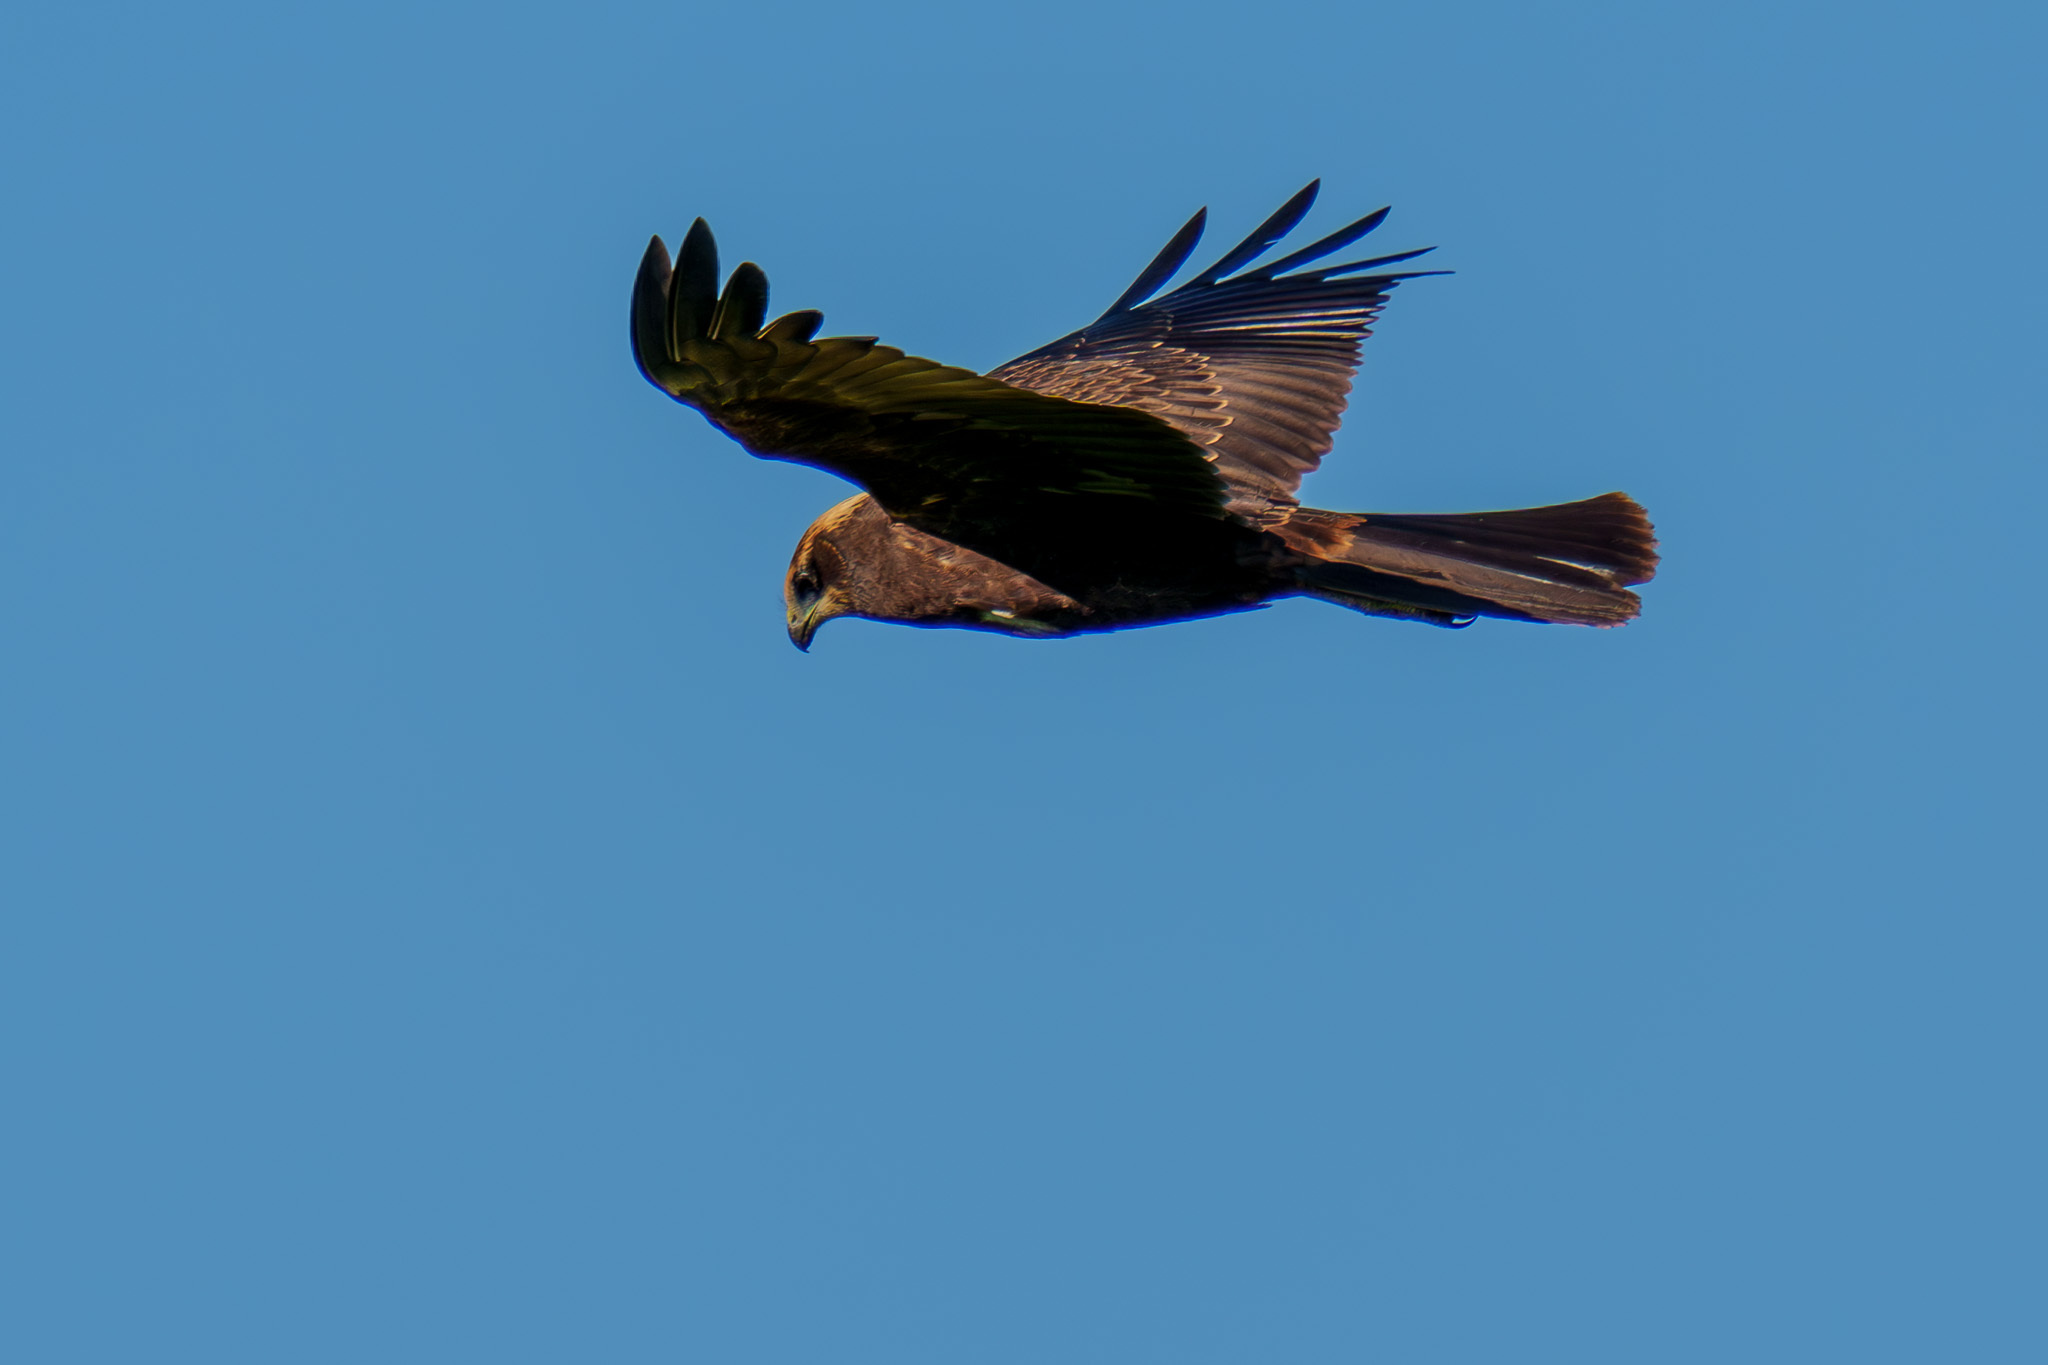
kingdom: Animalia
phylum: Chordata
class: Aves
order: Accipitriformes
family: Accipitridae
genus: Circus
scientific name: Circus aeruginosus
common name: Western marsh harrier
